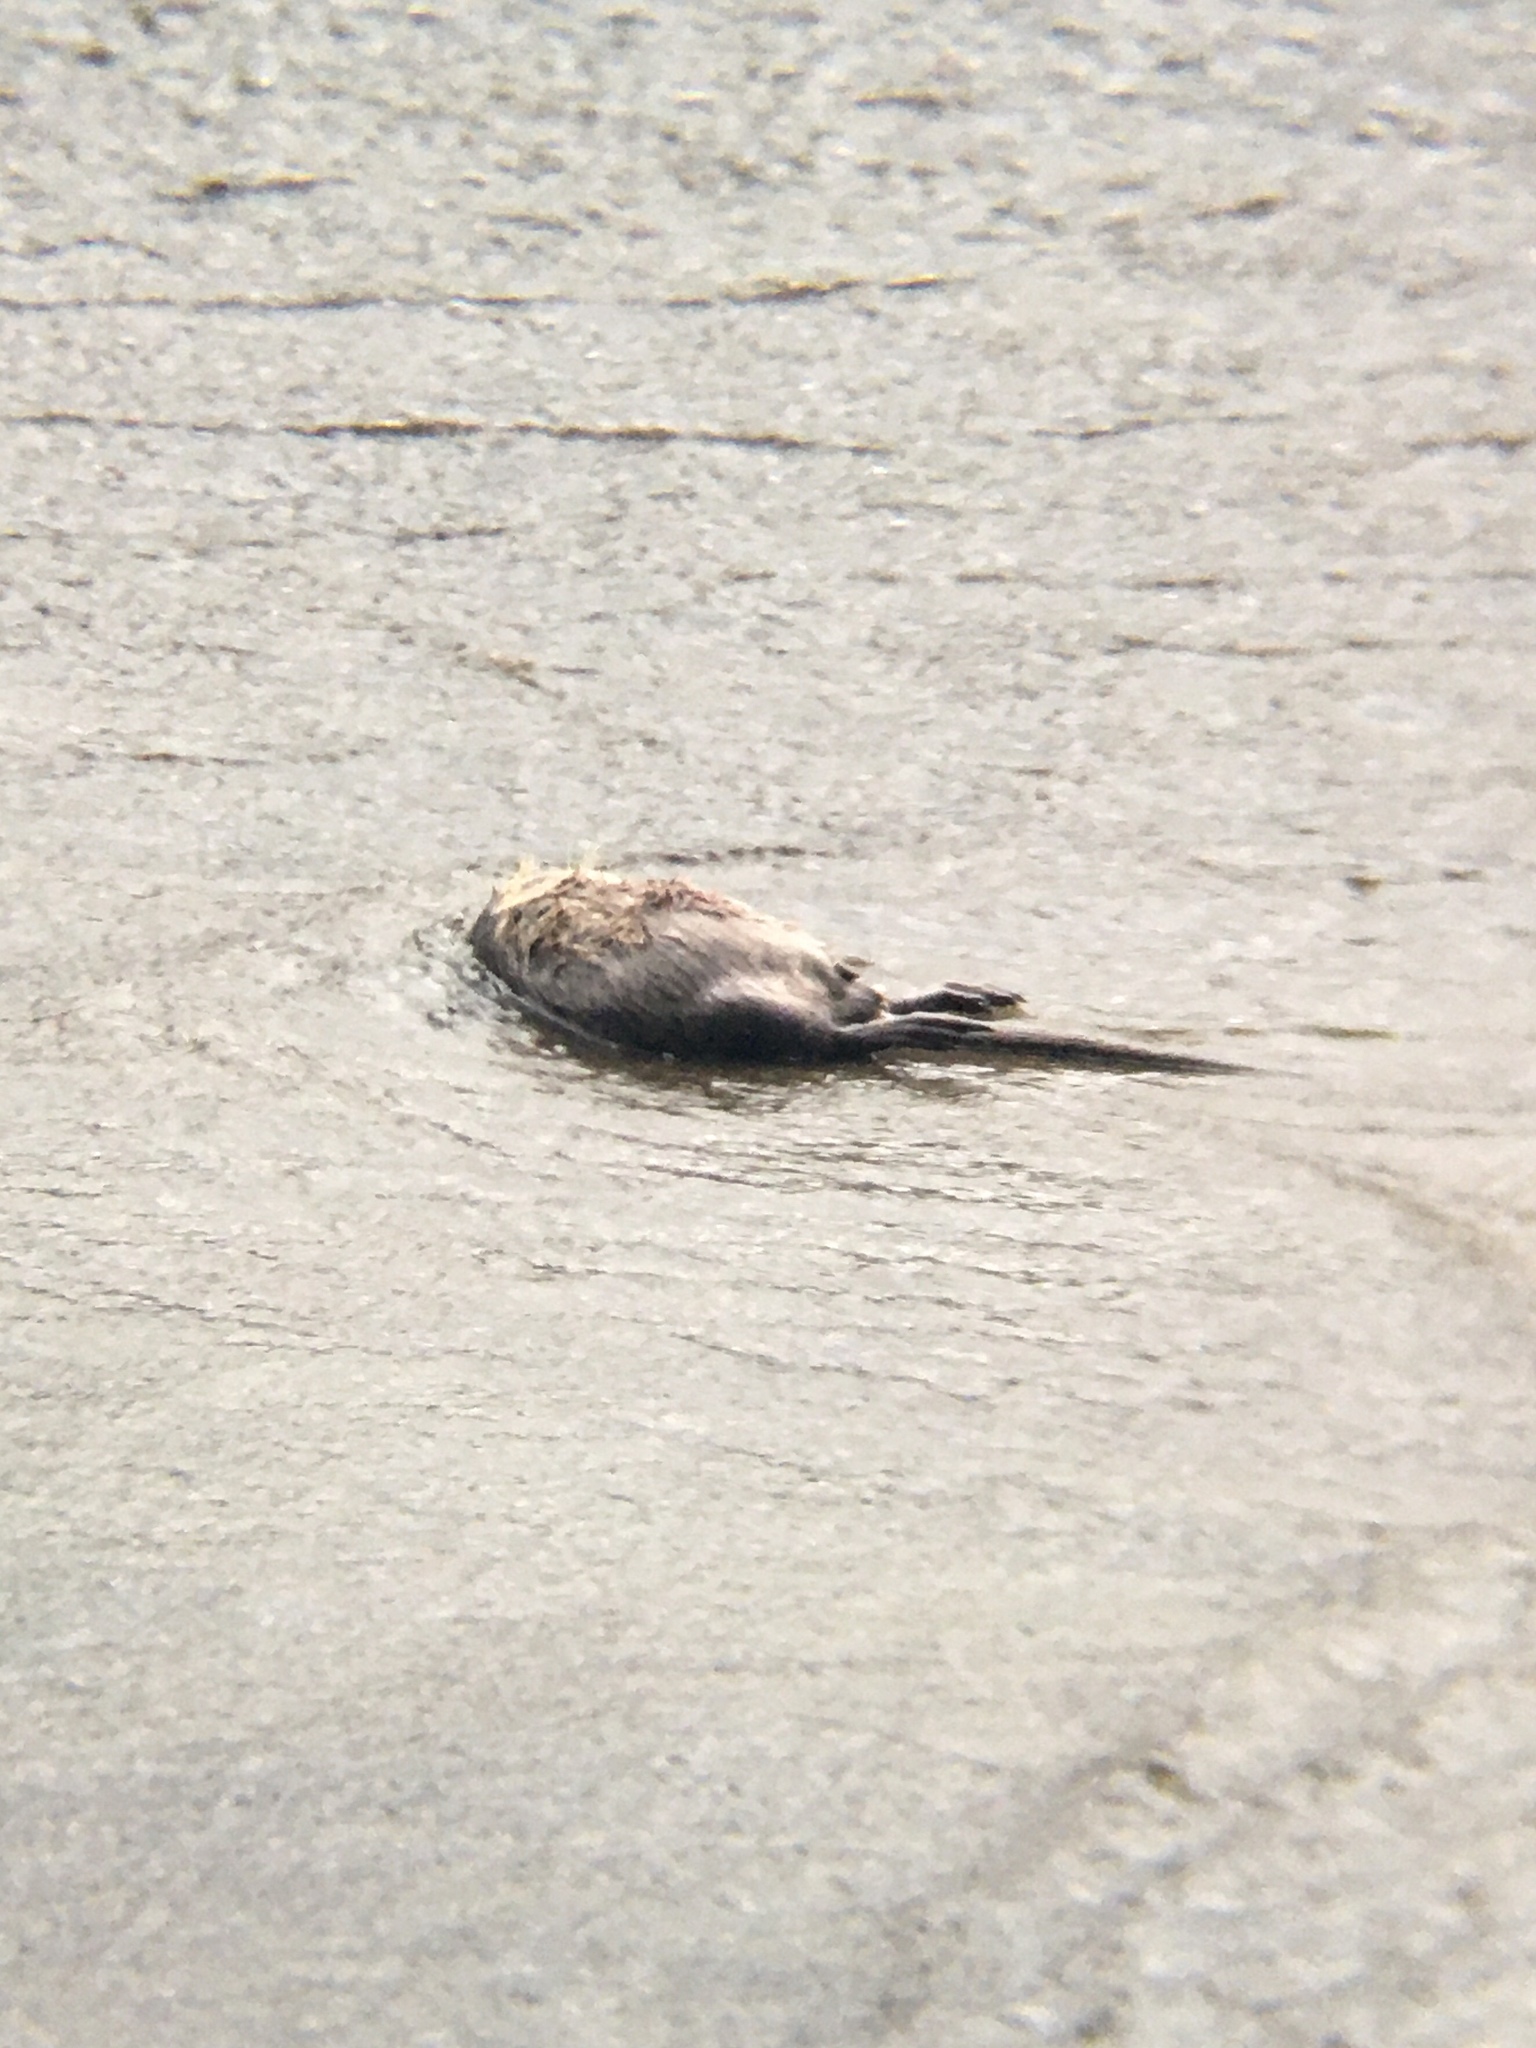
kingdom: Animalia
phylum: Chordata
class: Mammalia
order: Rodentia
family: Myocastoridae
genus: Myocastor
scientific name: Myocastor coypus
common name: Coypu
